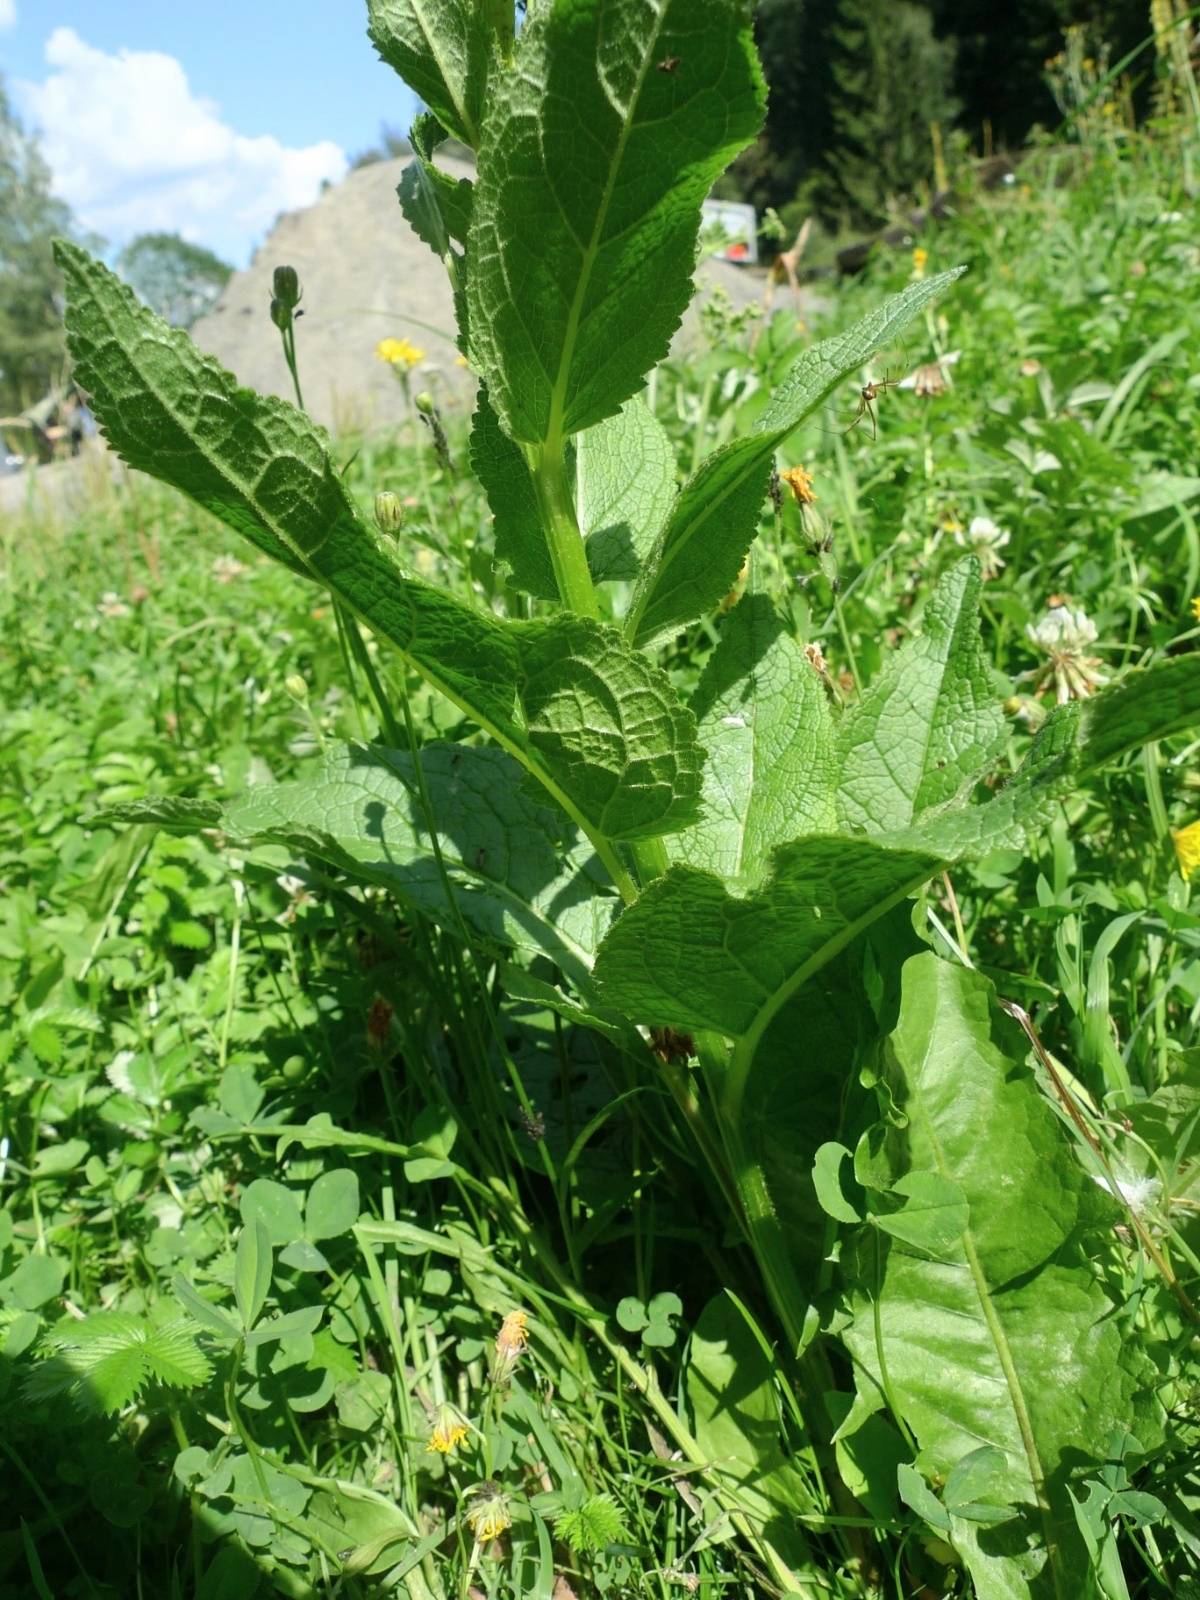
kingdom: Plantae
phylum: Tracheophyta
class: Magnoliopsida
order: Lamiales
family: Scrophulariaceae
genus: Verbascum
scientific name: Verbascum nigrum
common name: Dark mullein
